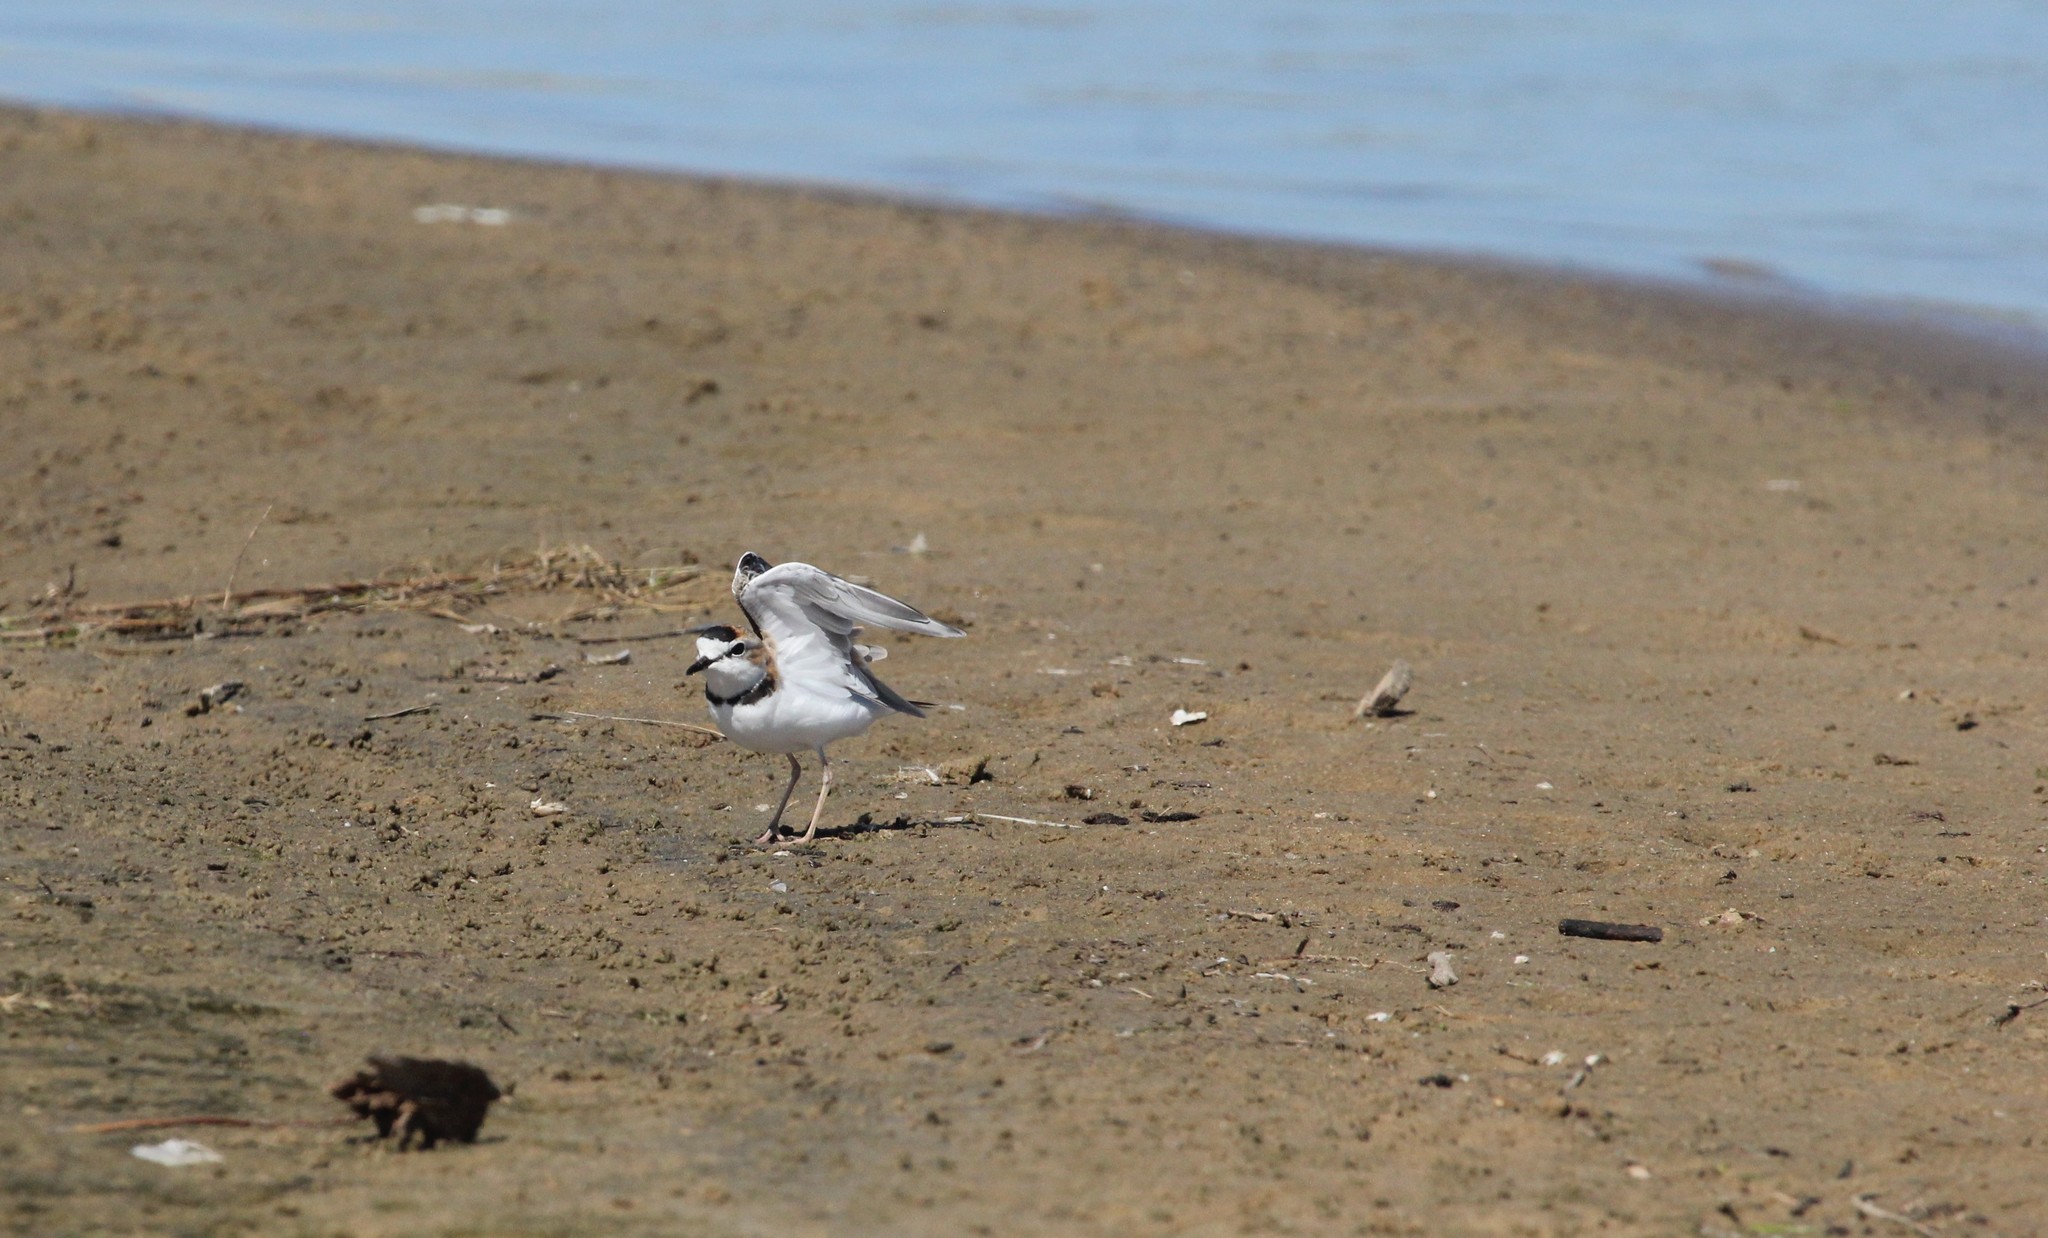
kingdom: Animalia
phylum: Chordata
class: Aves
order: Charadriiformes
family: Charadriidae
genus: Anarhynchus
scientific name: Anarhynchus
